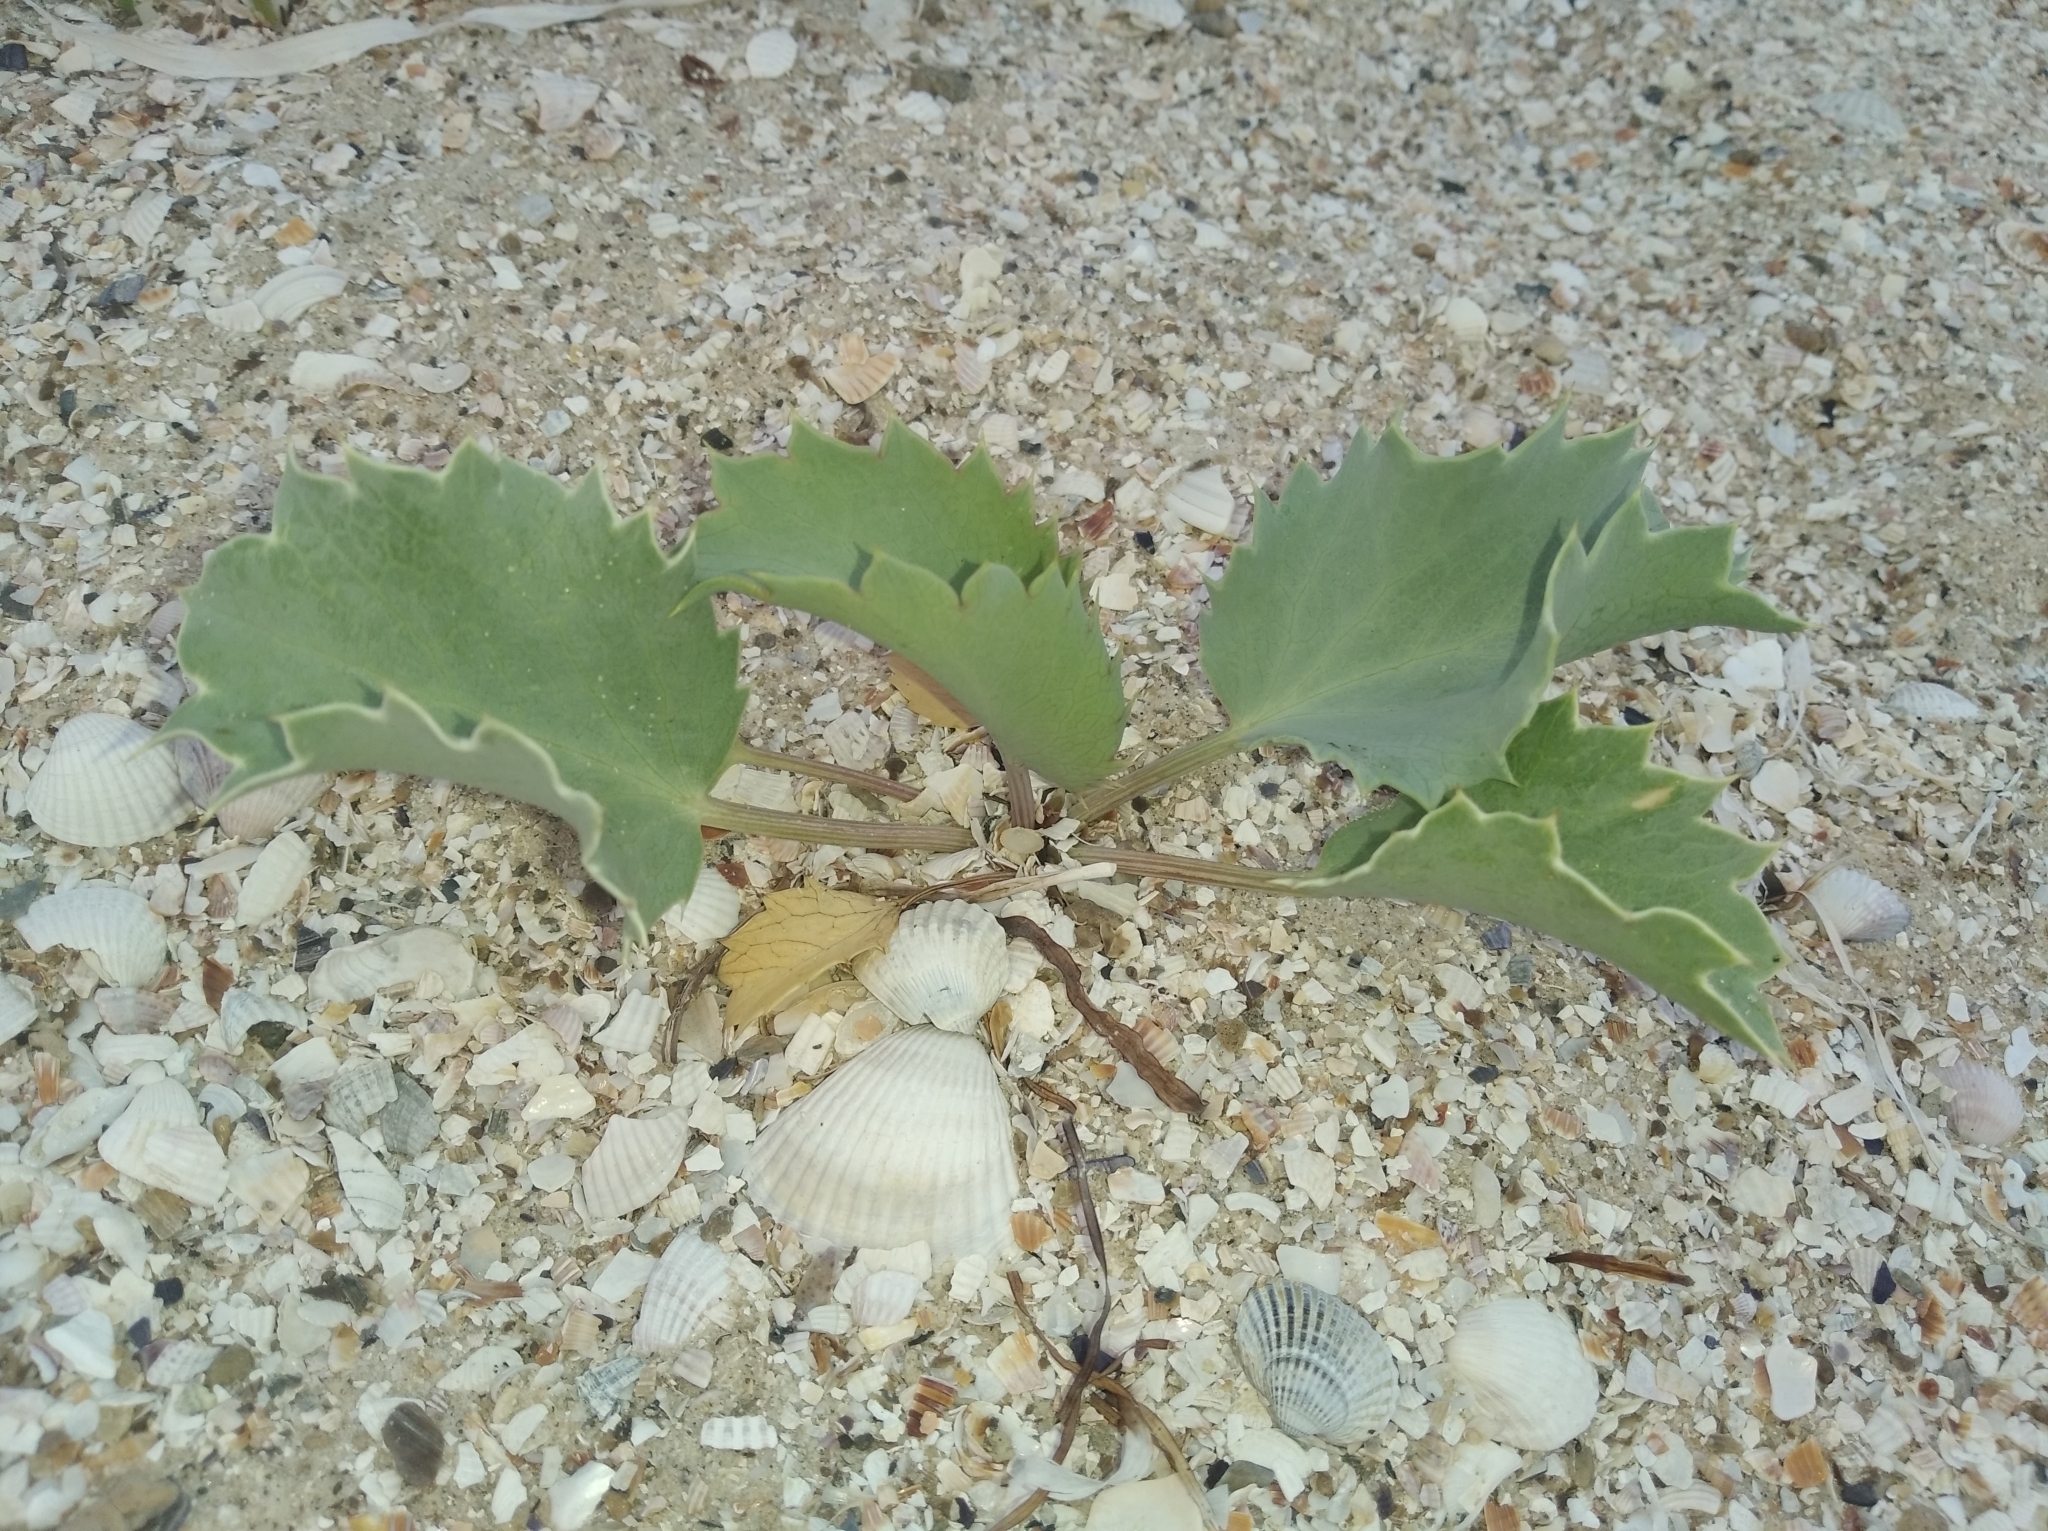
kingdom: Plantae
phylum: Tracheophyta
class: Magnoliopsida
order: Apiales
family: Apiaceae
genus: Eryngium
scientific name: Eryngium maritimum
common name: Sea-holly
